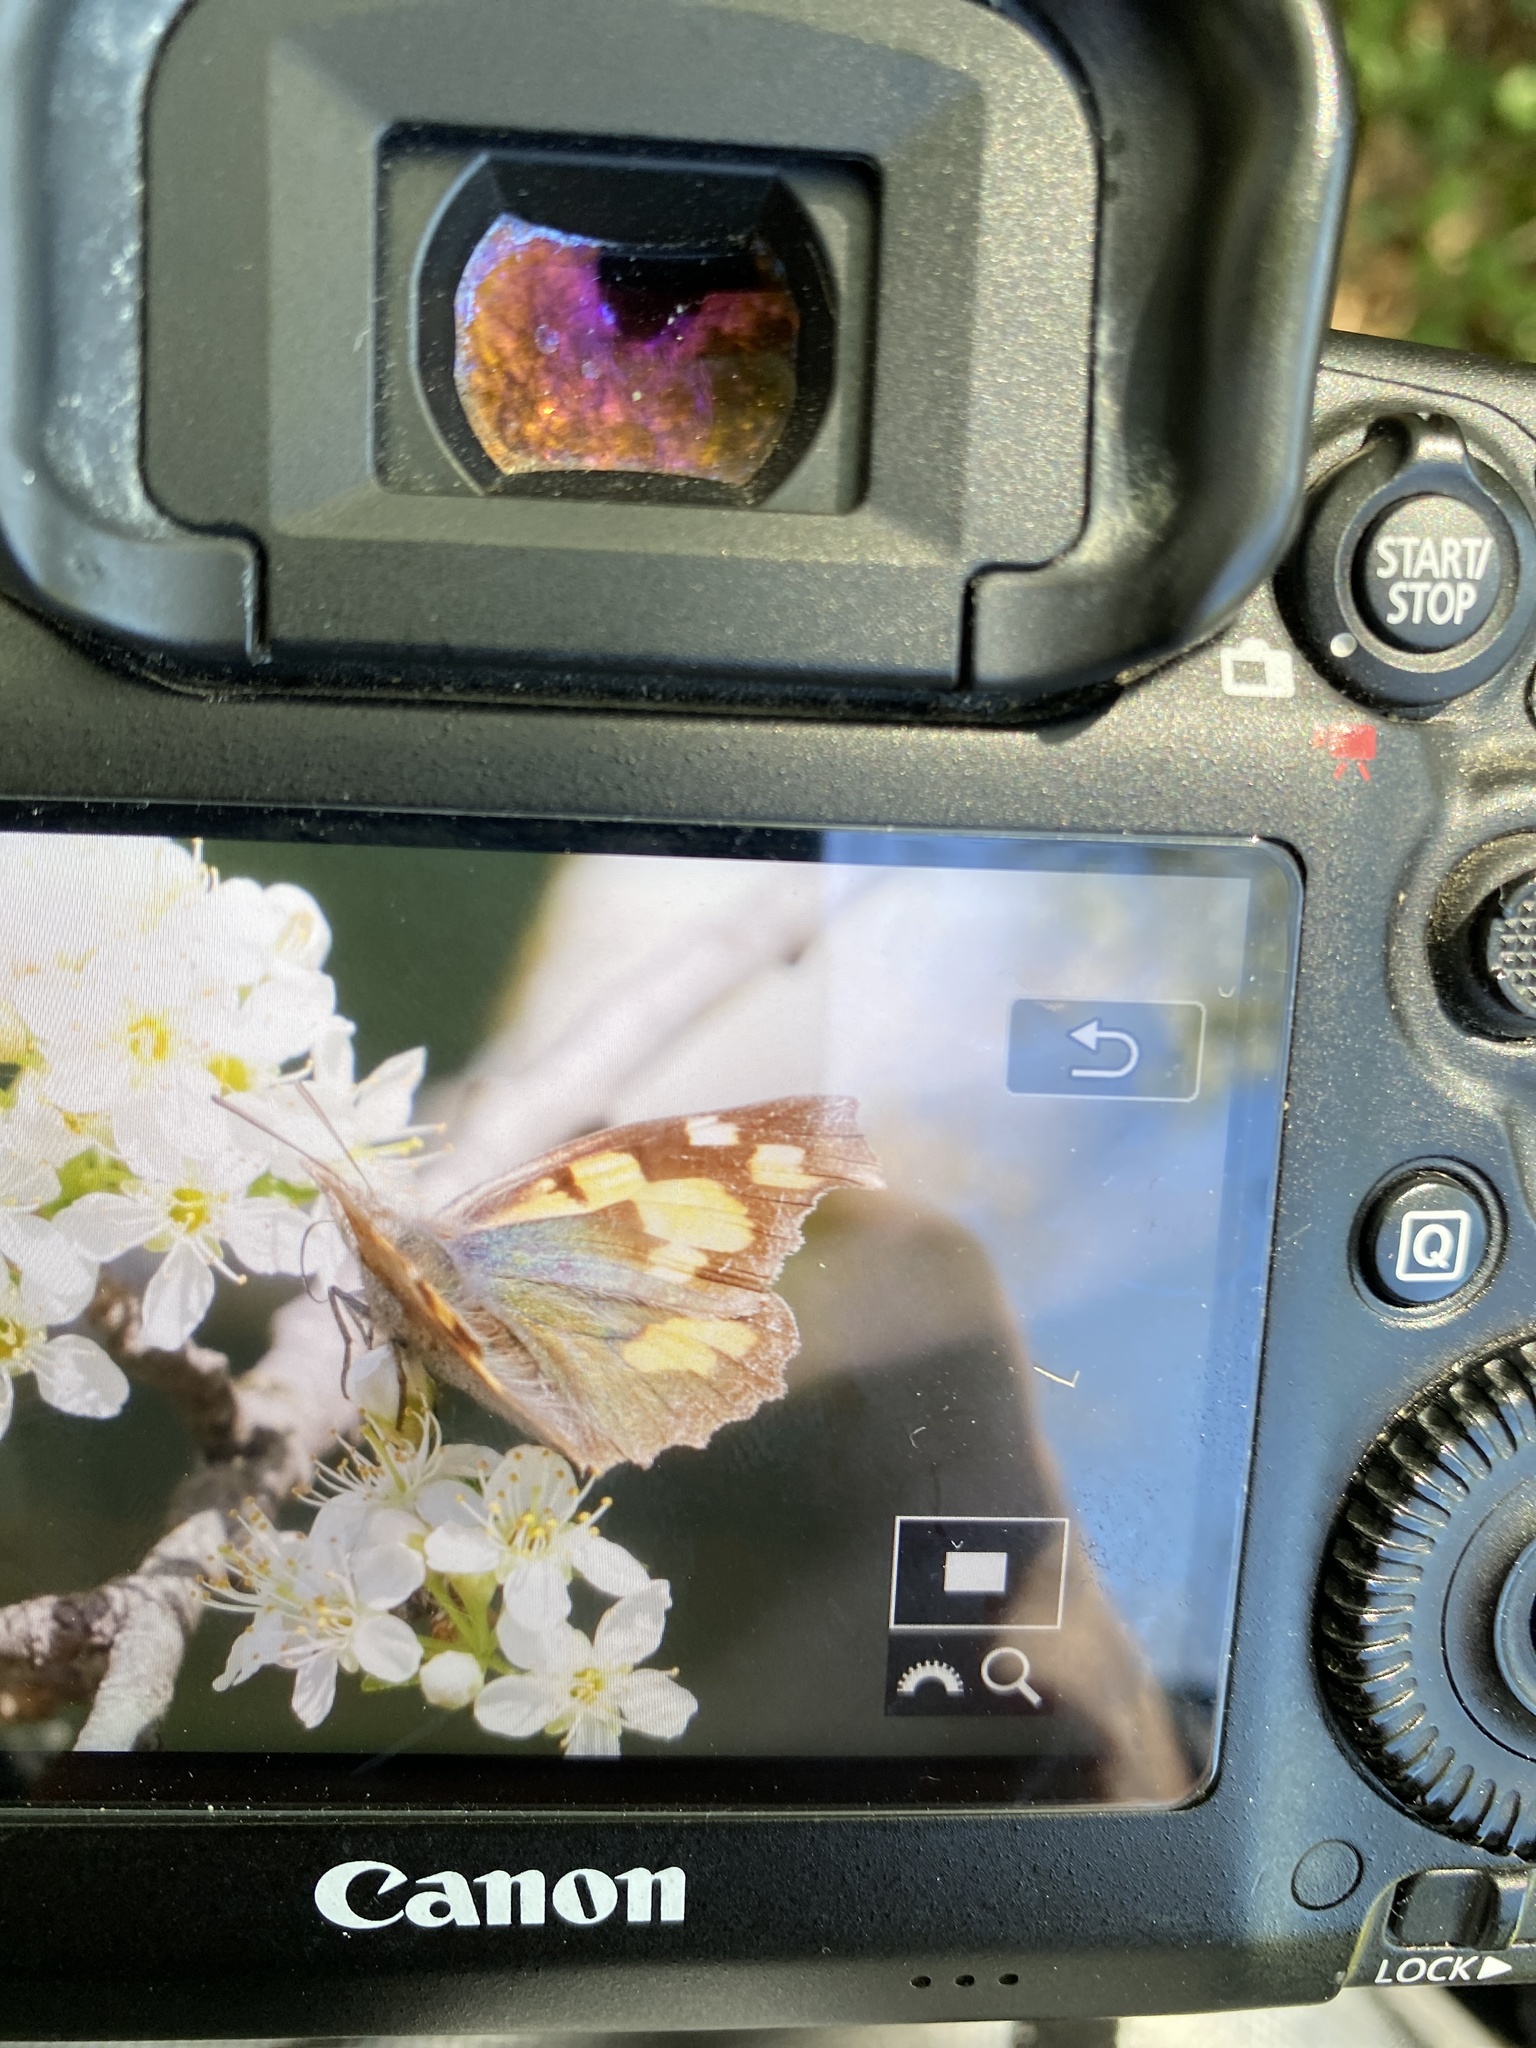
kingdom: Animalia
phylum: Arthropoda
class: Insecta
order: Lepidoptera
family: Nymphalidae
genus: Libythea
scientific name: Libythea celtis
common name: Nettle-tree butterfly
